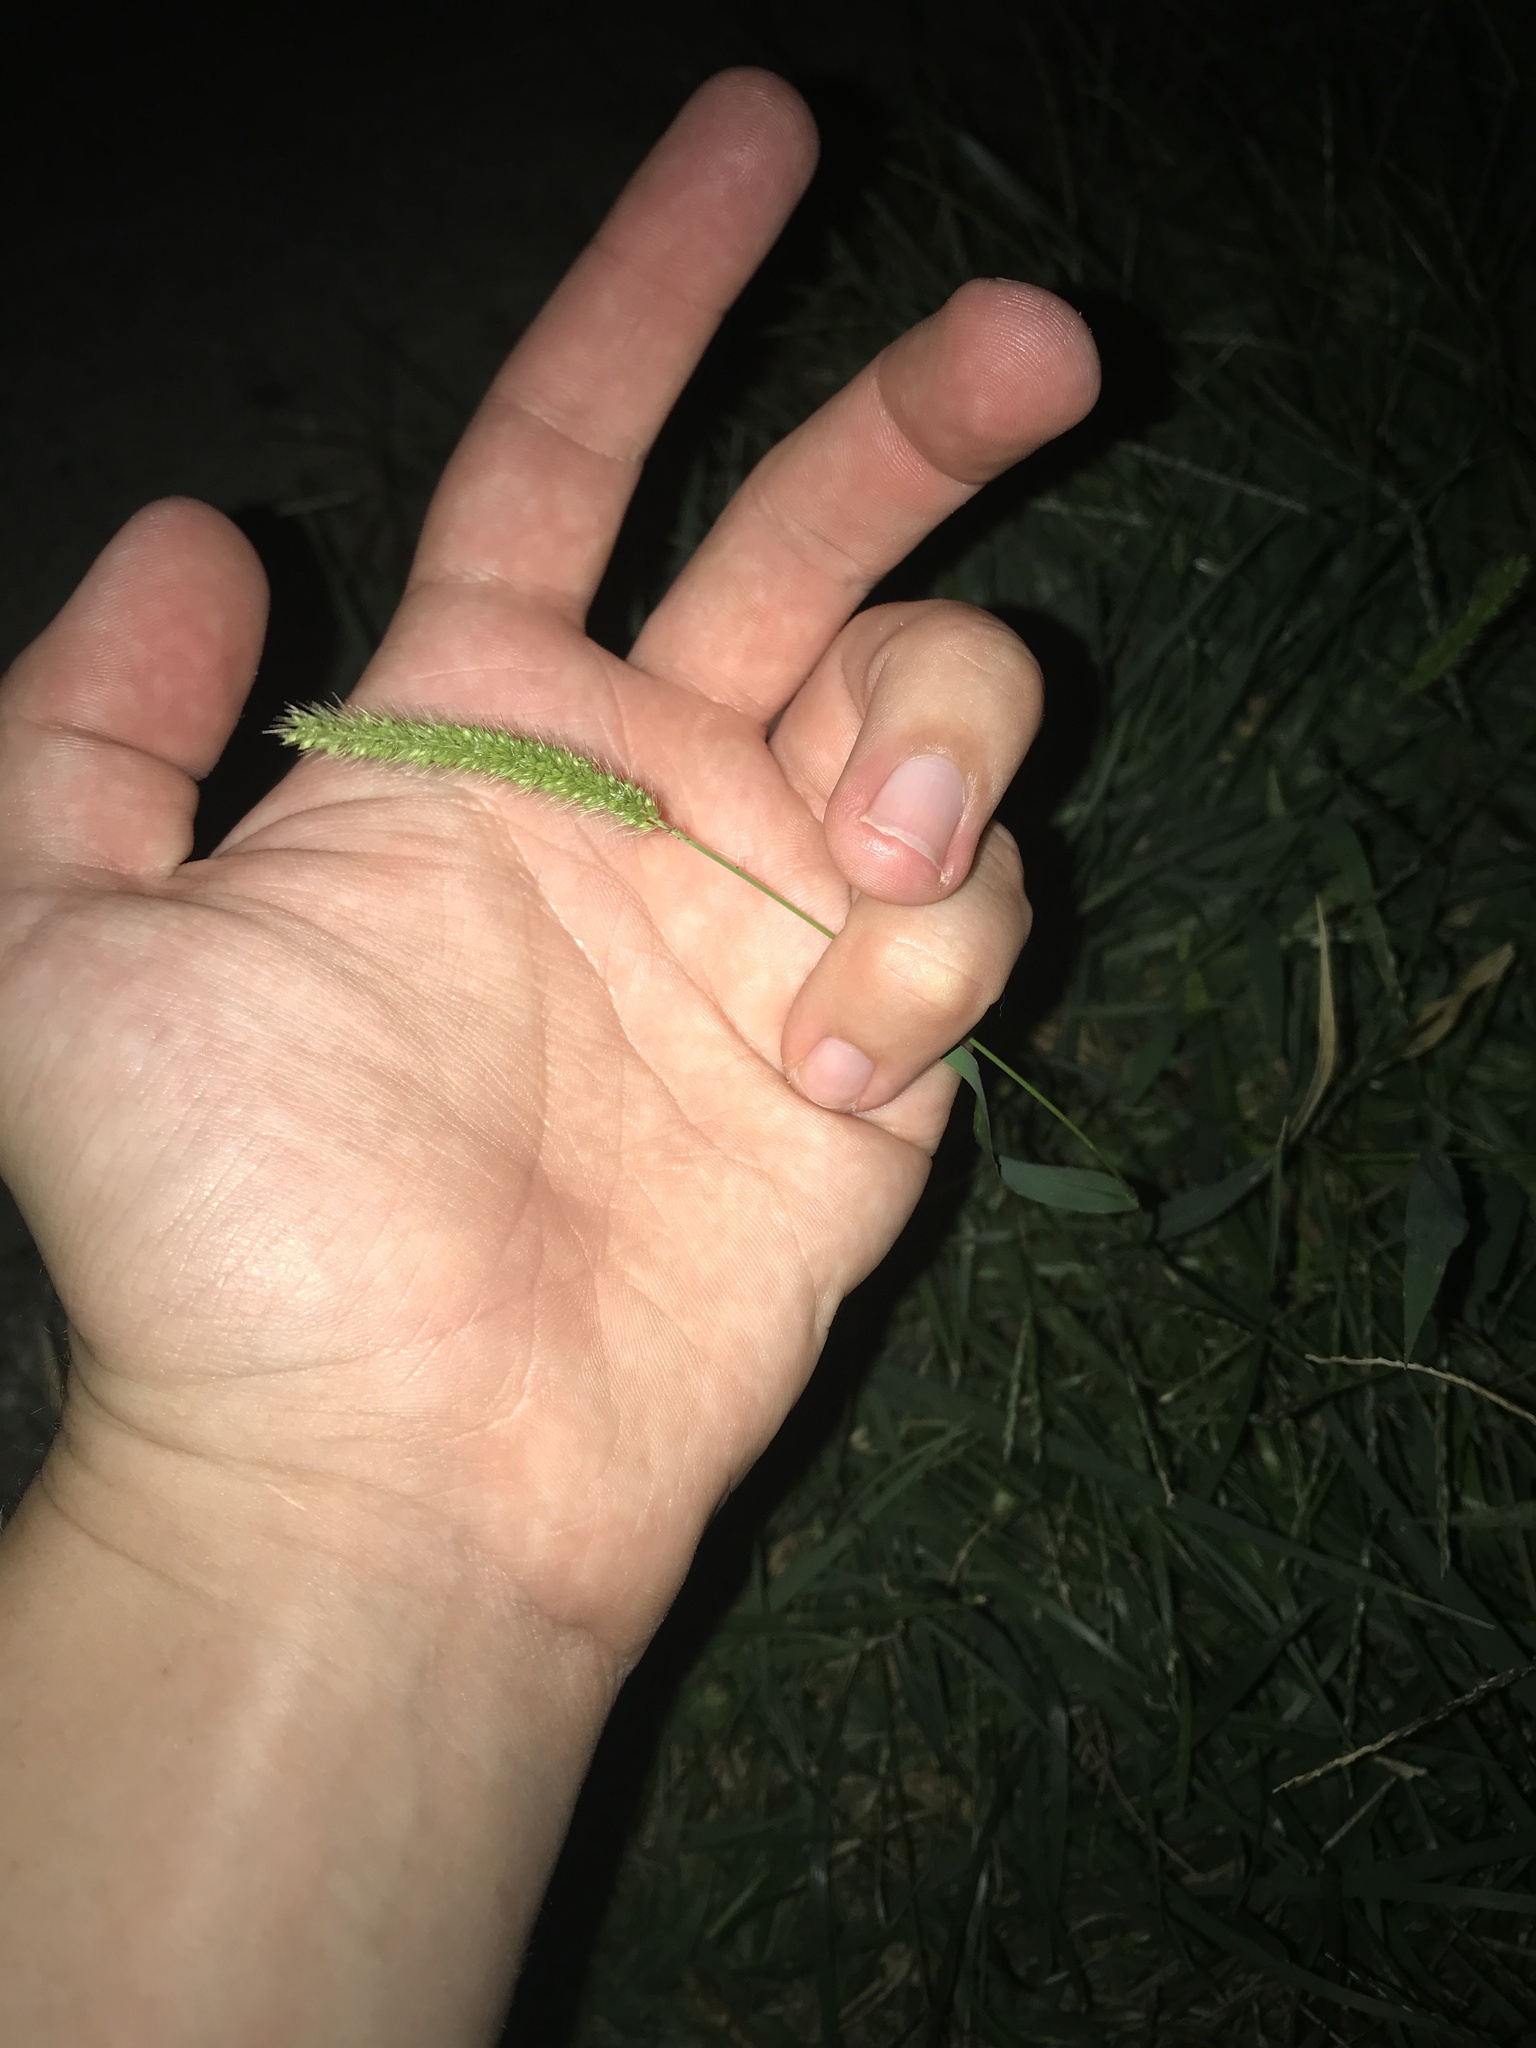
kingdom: Plantae
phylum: Tracheophyta
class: Liliopsida
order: Poales
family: Poaceae
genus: Setaria
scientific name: Setaria viridis
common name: Green bristlegrass
